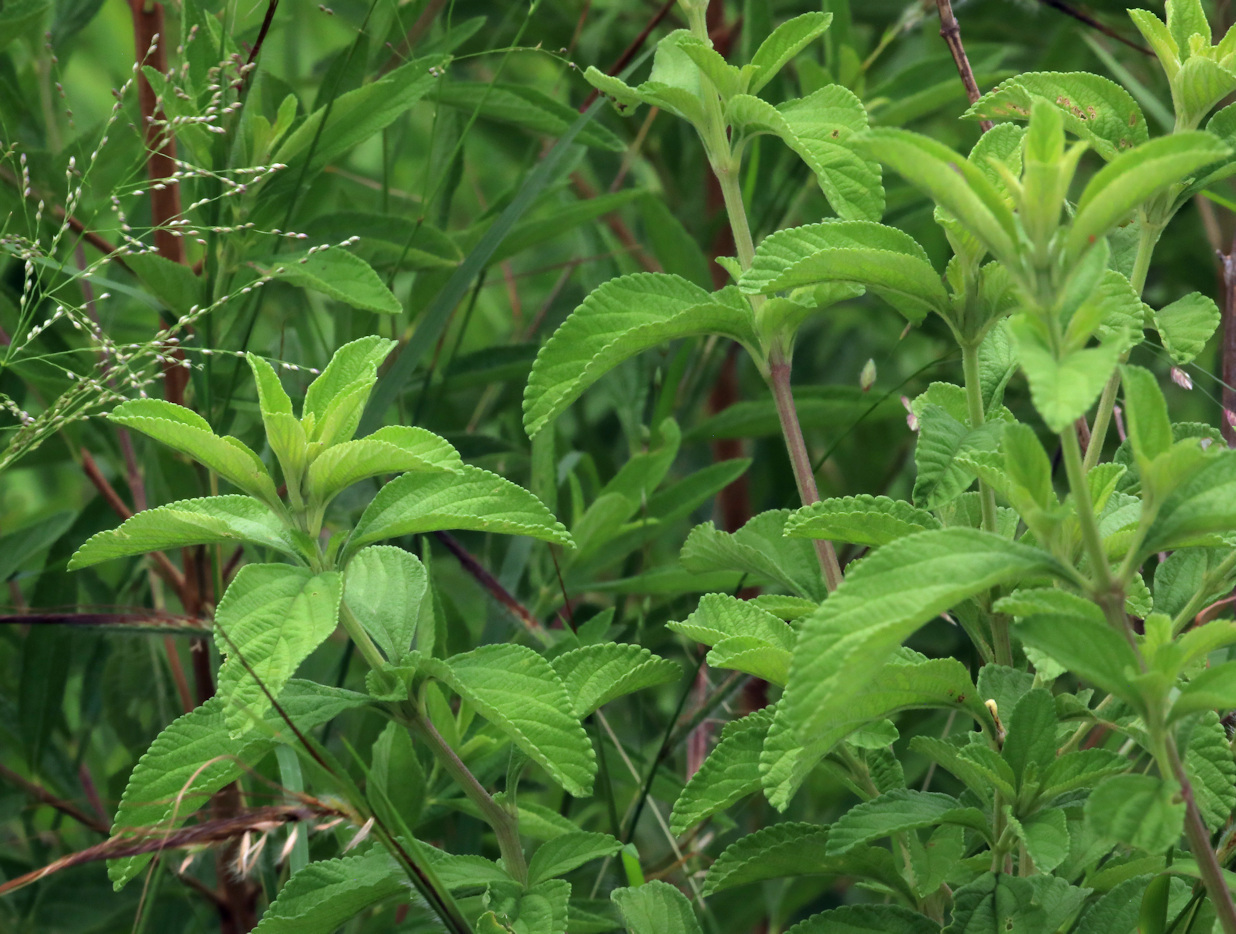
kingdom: Plantae
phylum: Tracheophyta
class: Magnoliopsida
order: Lamiales
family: Verbenaceae
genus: Lippia
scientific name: Lippia javanica
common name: Lemonbush
